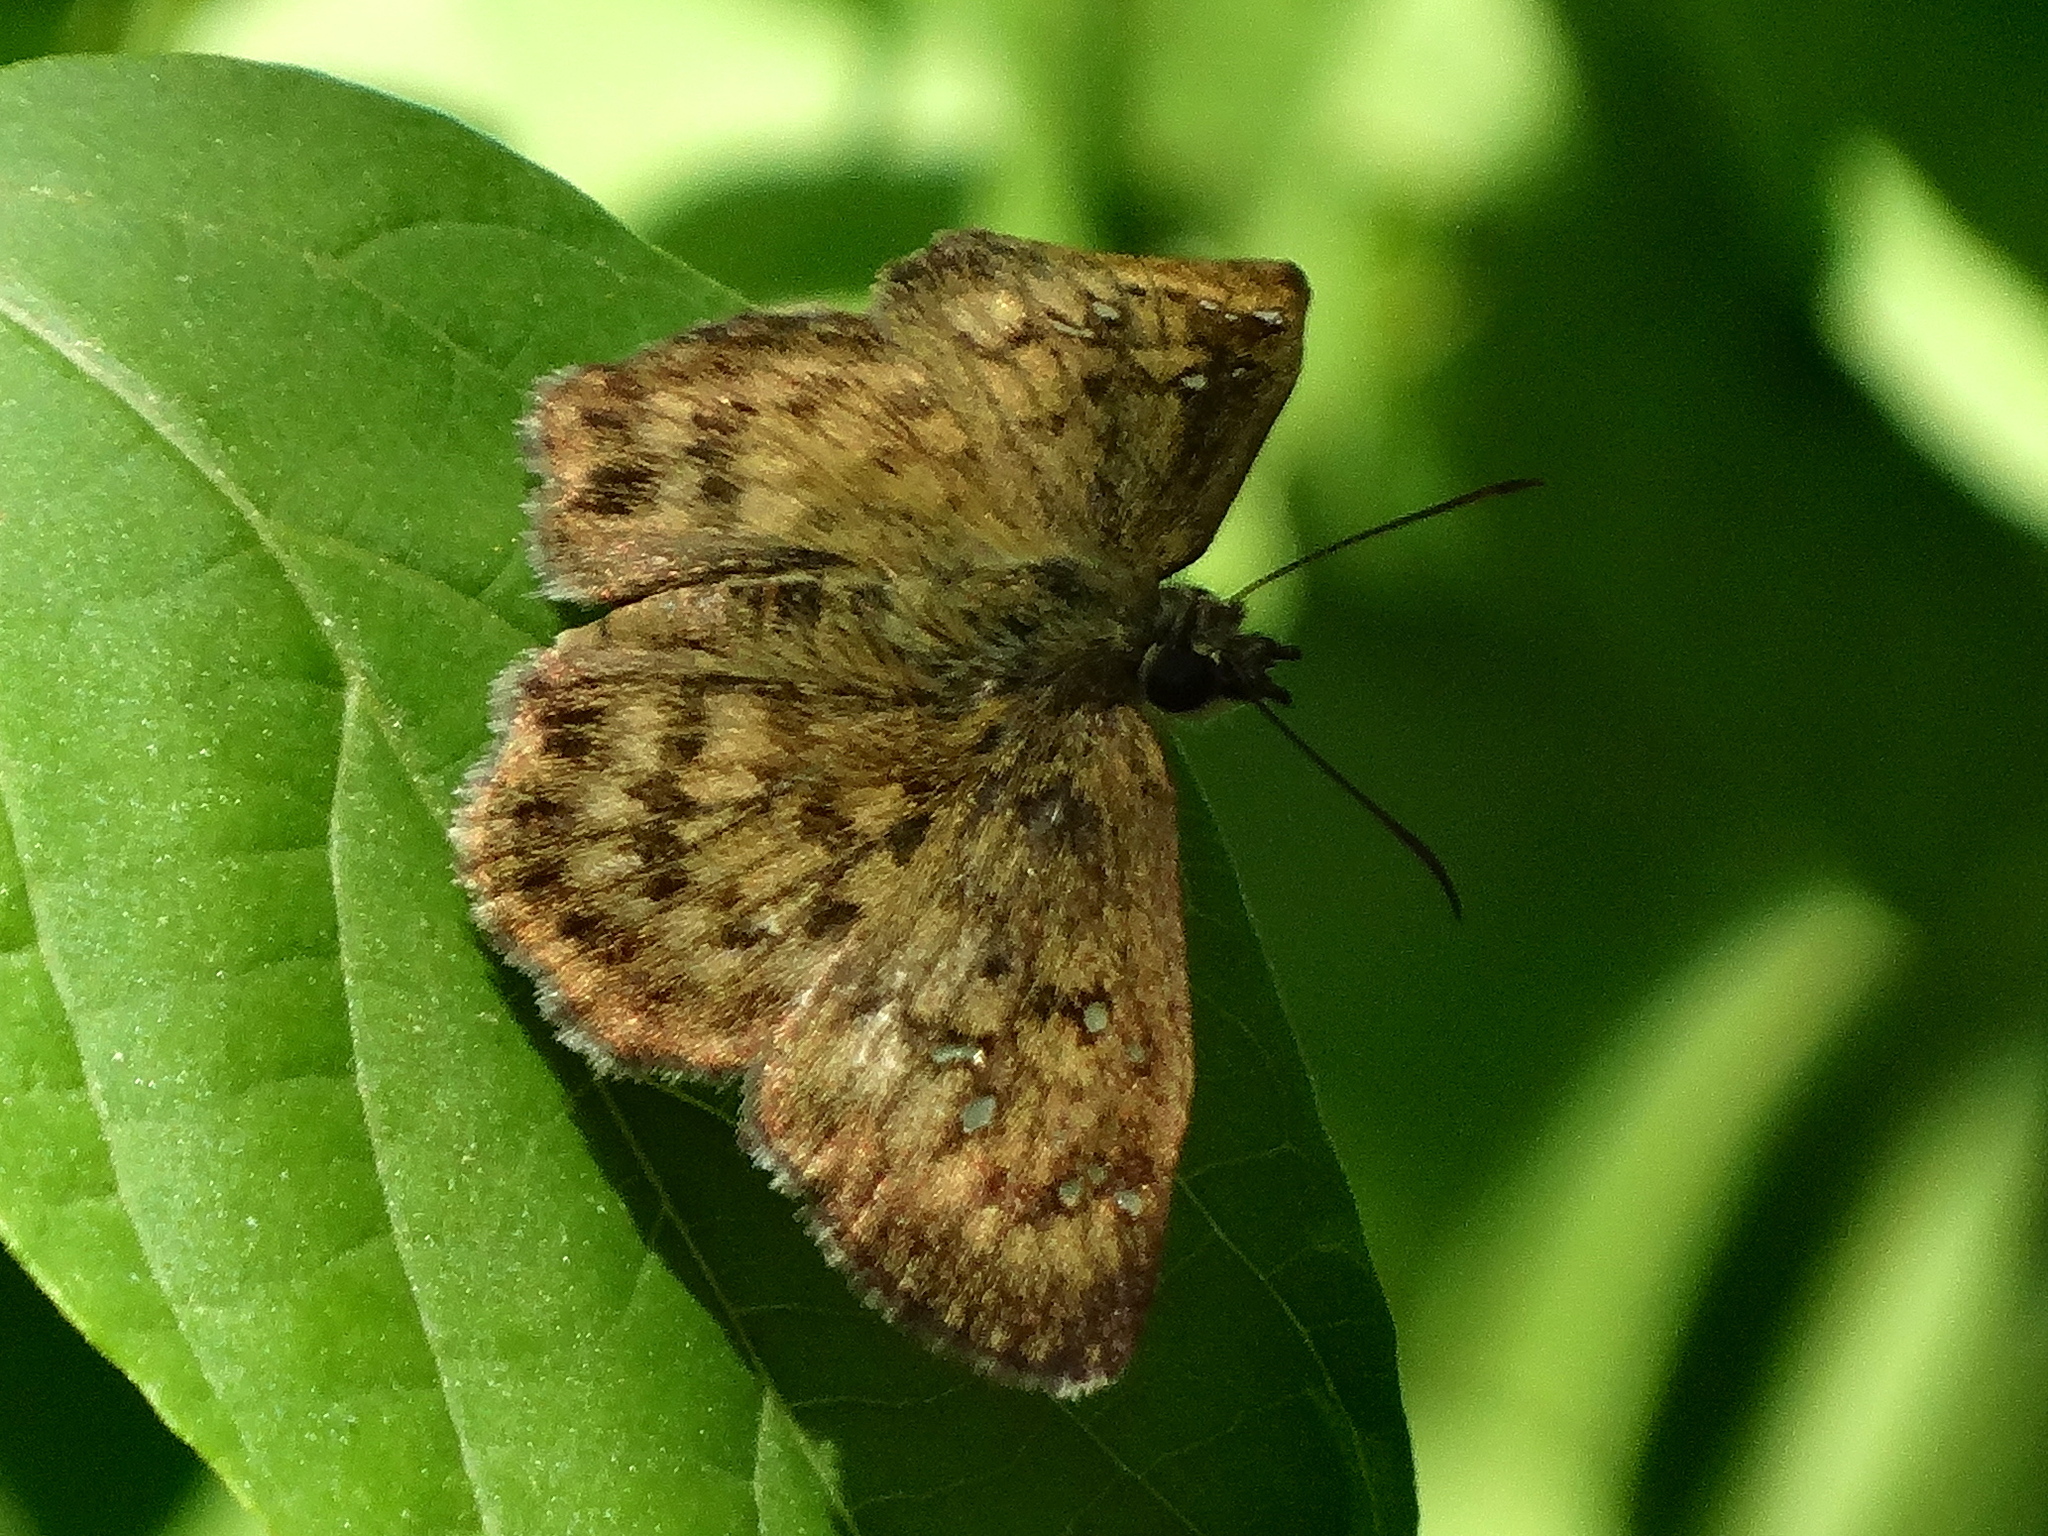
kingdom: Animalia
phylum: Arthropoda
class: Insecta
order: Lepidoptera
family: Hesperiidae
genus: Celaenorrhinus
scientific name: Celaenorrhinus
